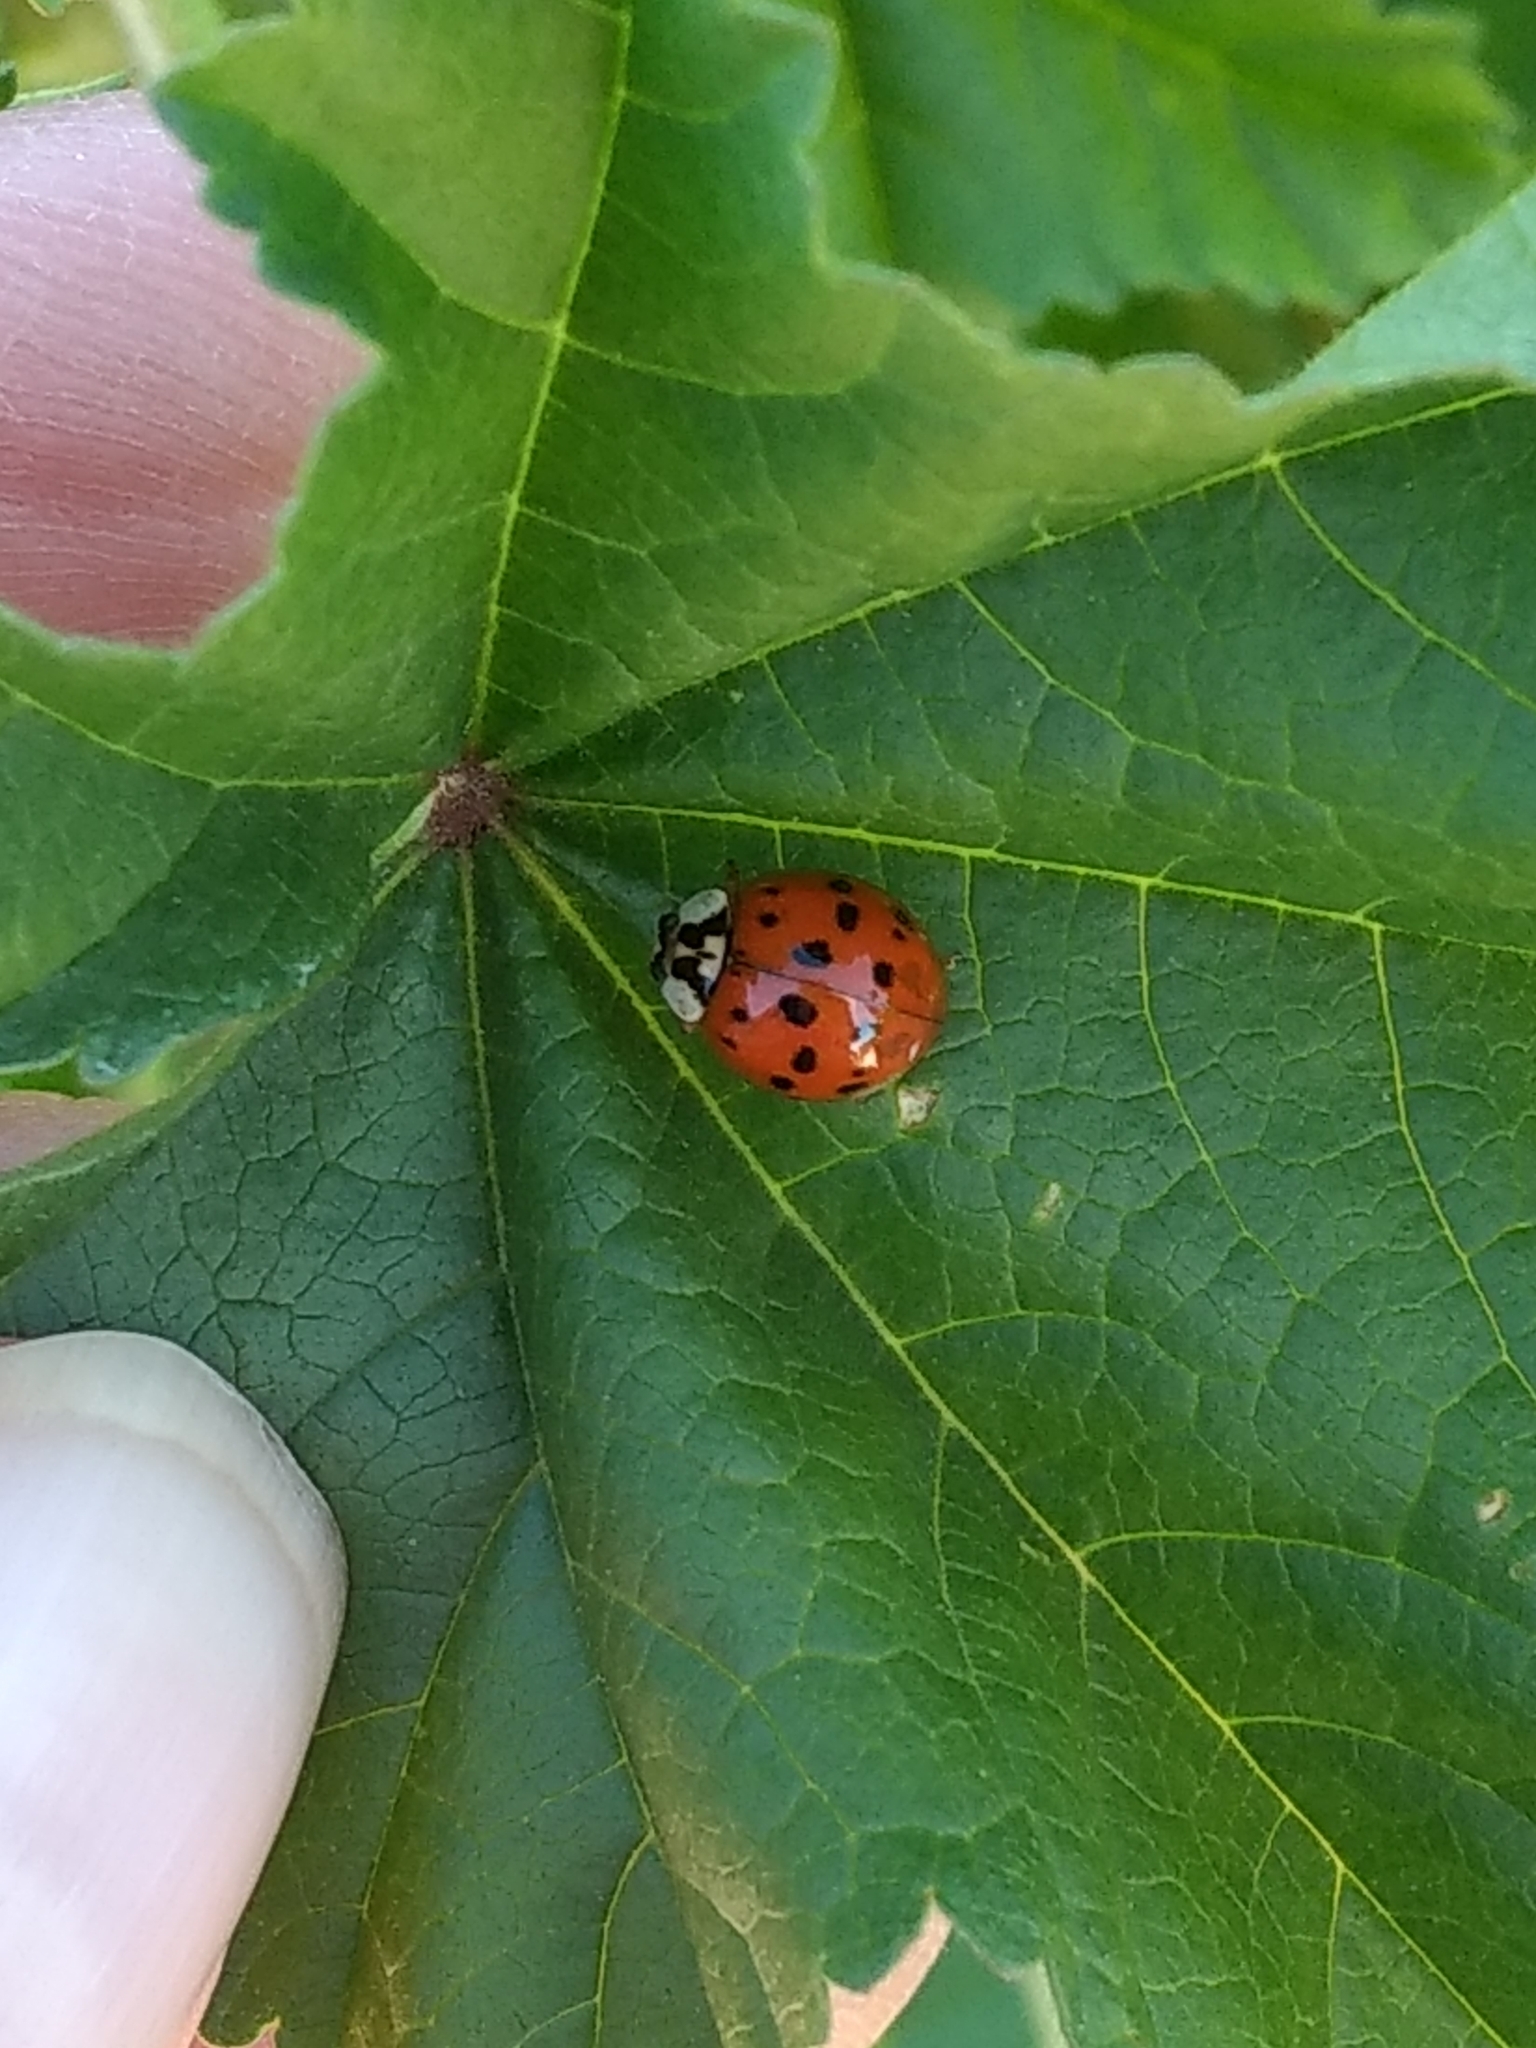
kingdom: Animalia
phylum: Arthropoda
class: Insecta
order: Coleoptera
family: Coccinellidae
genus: Harmonia
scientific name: Harmonia axyridis
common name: Harlequin ladybird
